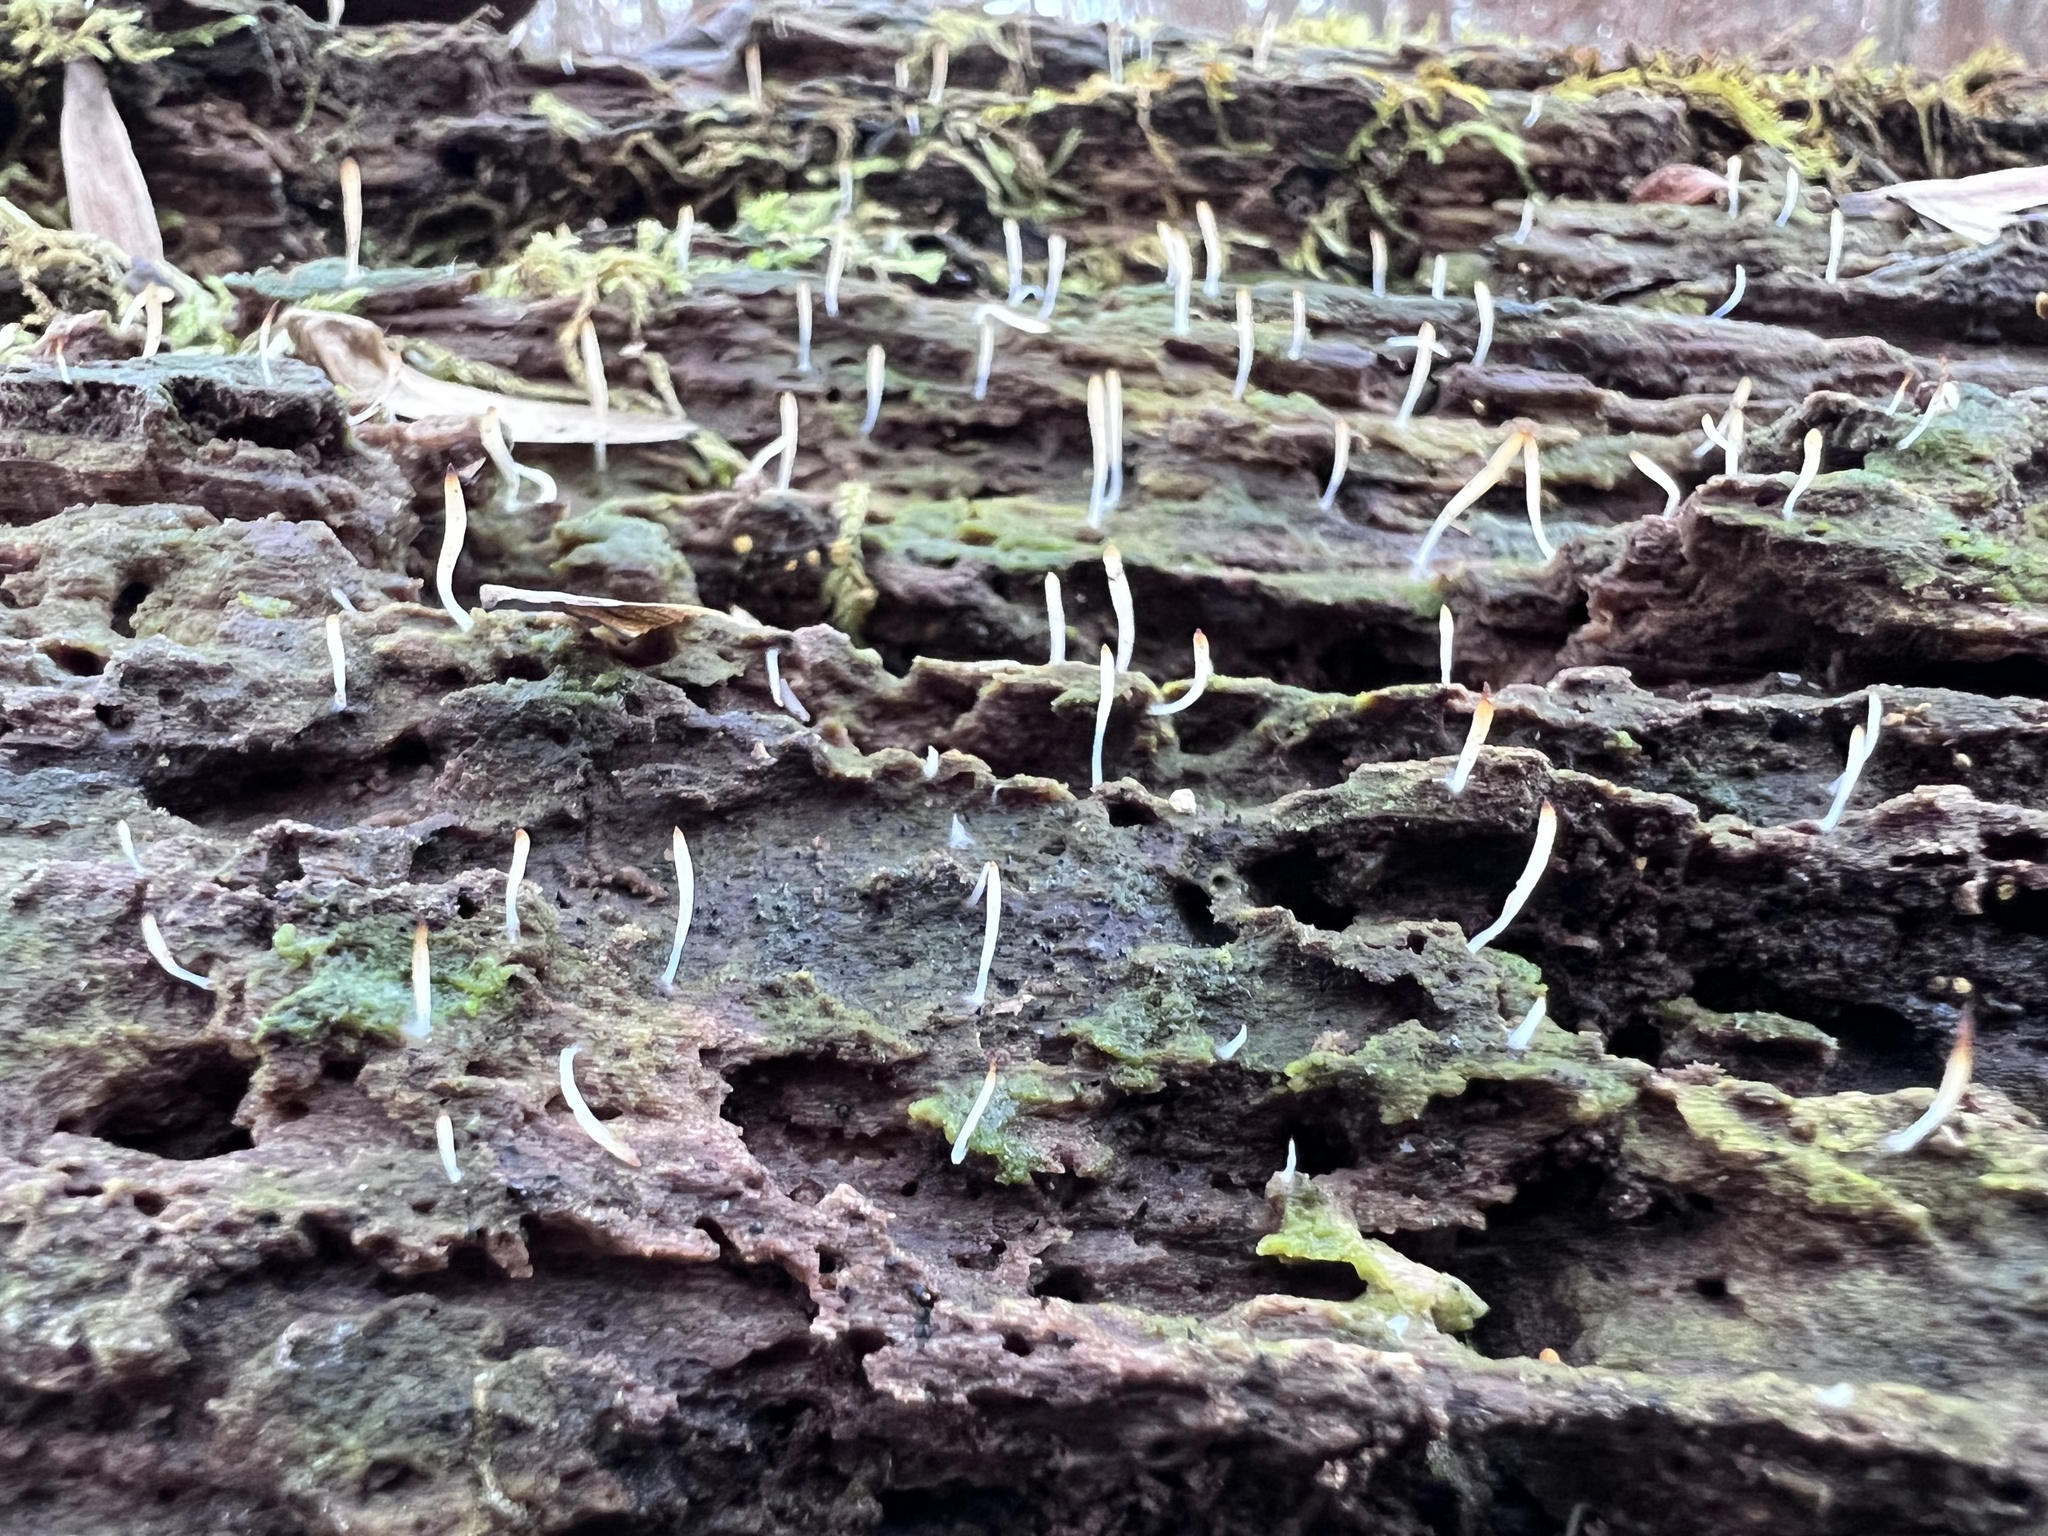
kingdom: Fungi
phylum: Basidiomycota
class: Agaricomycetes
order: Cantharellales
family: Hydnaceae
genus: Multiclavula
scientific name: Multiclavula mucida
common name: White green-algae coral
